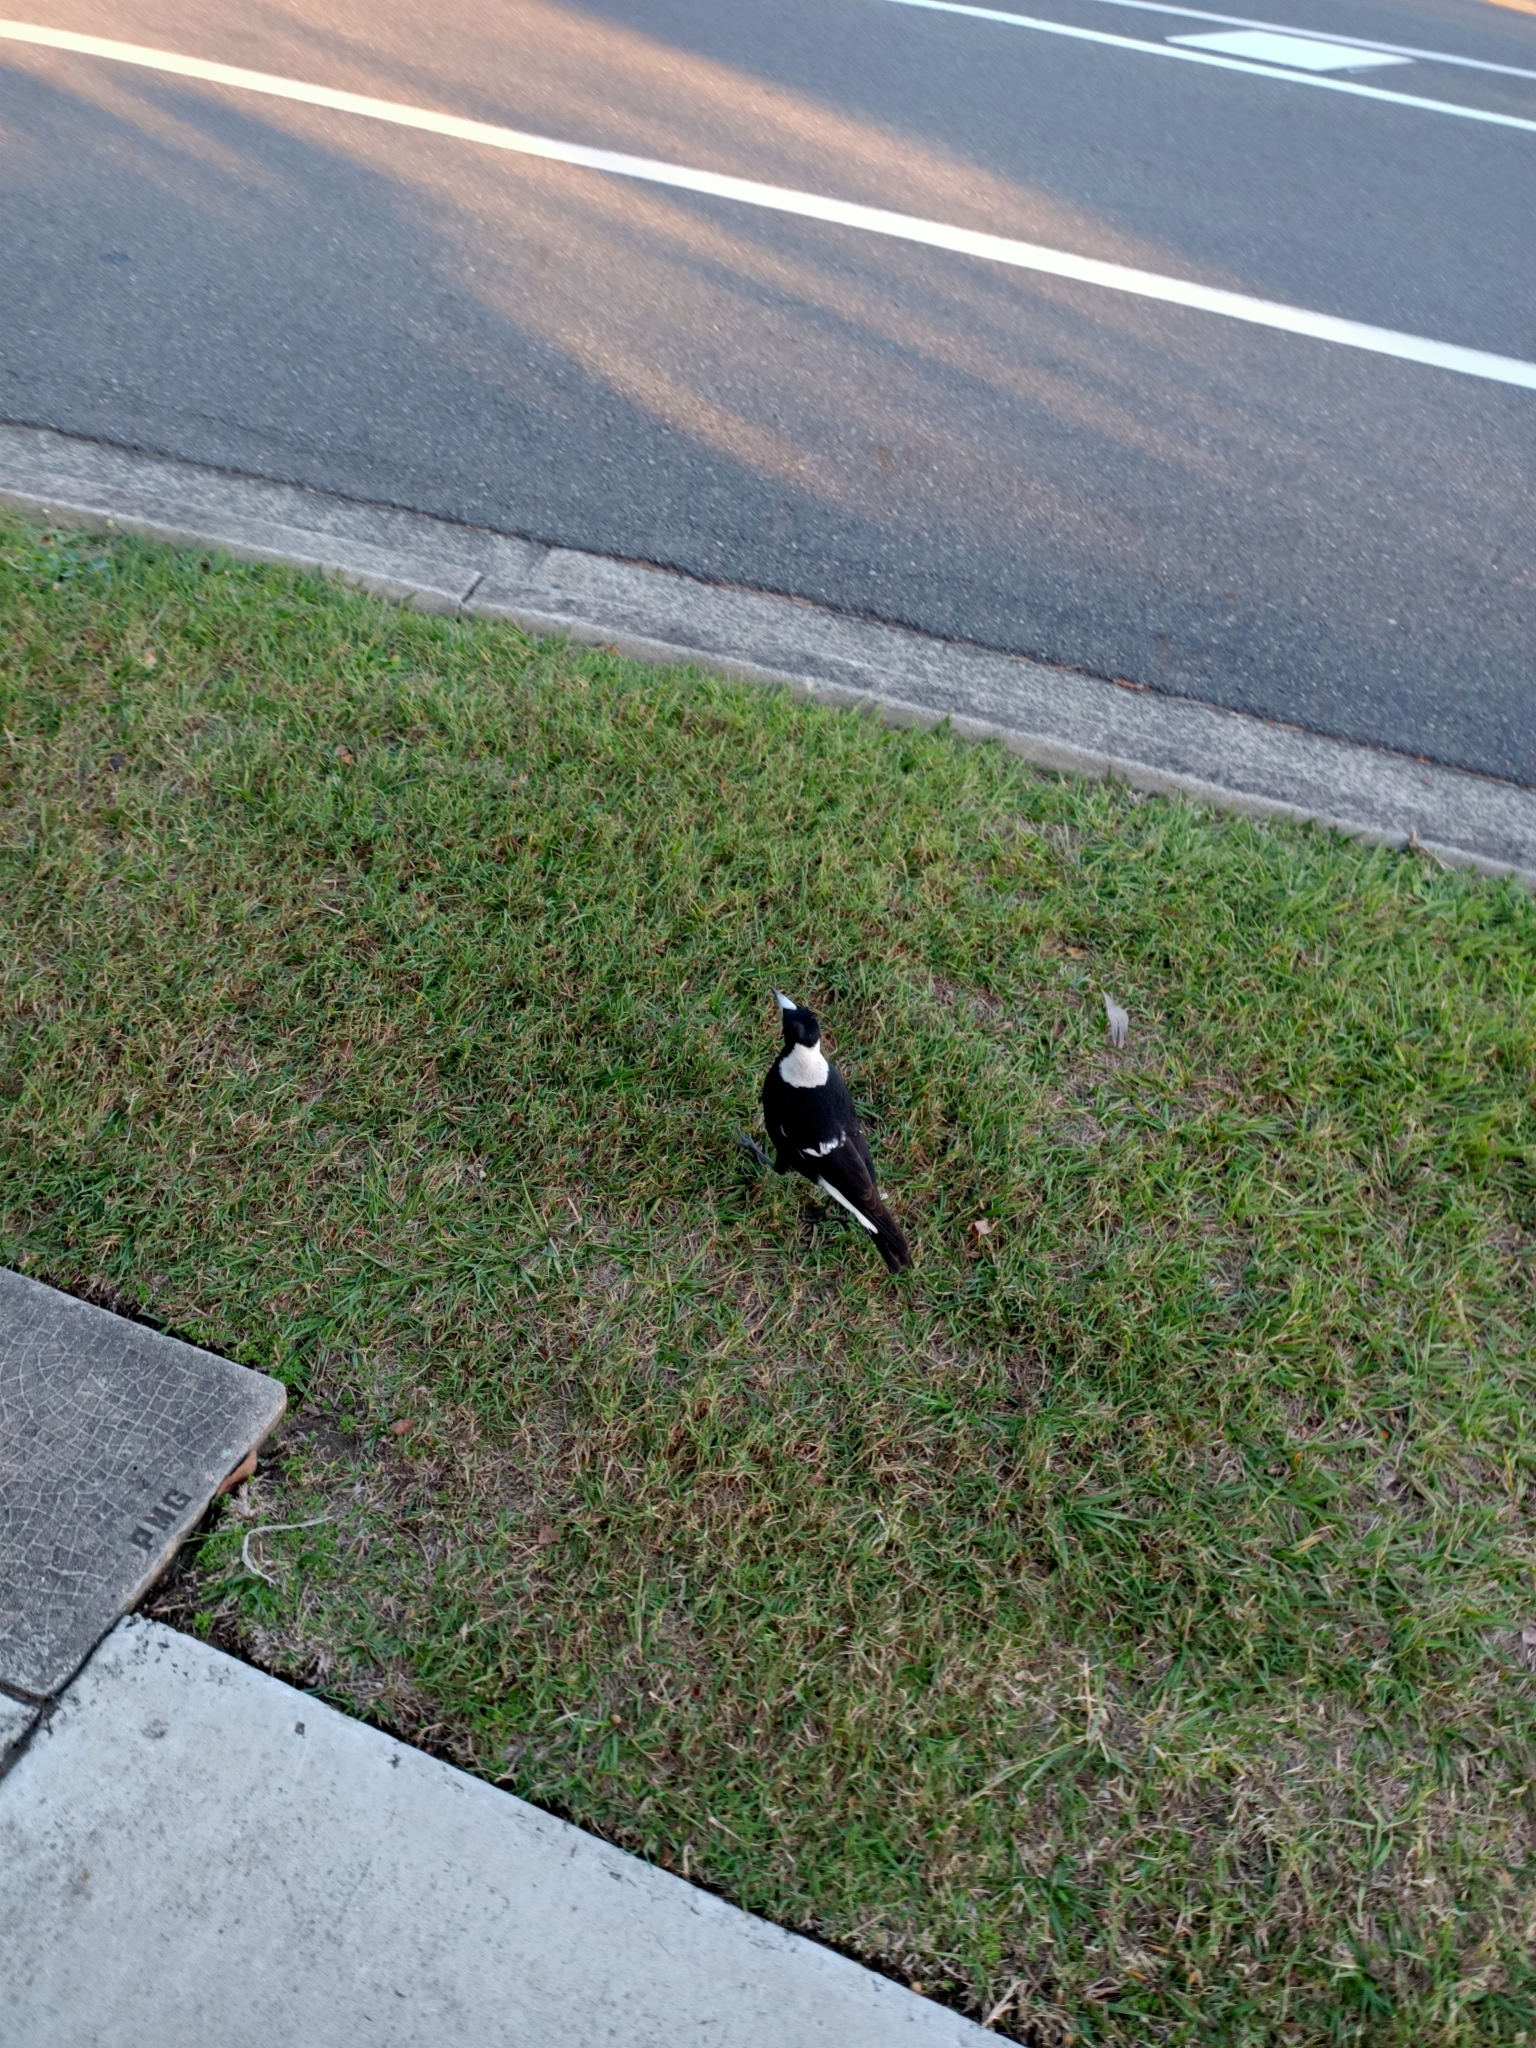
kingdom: Animalia
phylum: Chordata
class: Aves
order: Passeriformes
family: Cracticidae
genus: Gymnorhina
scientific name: Gymnorhina tibicen
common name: Australian magpie
